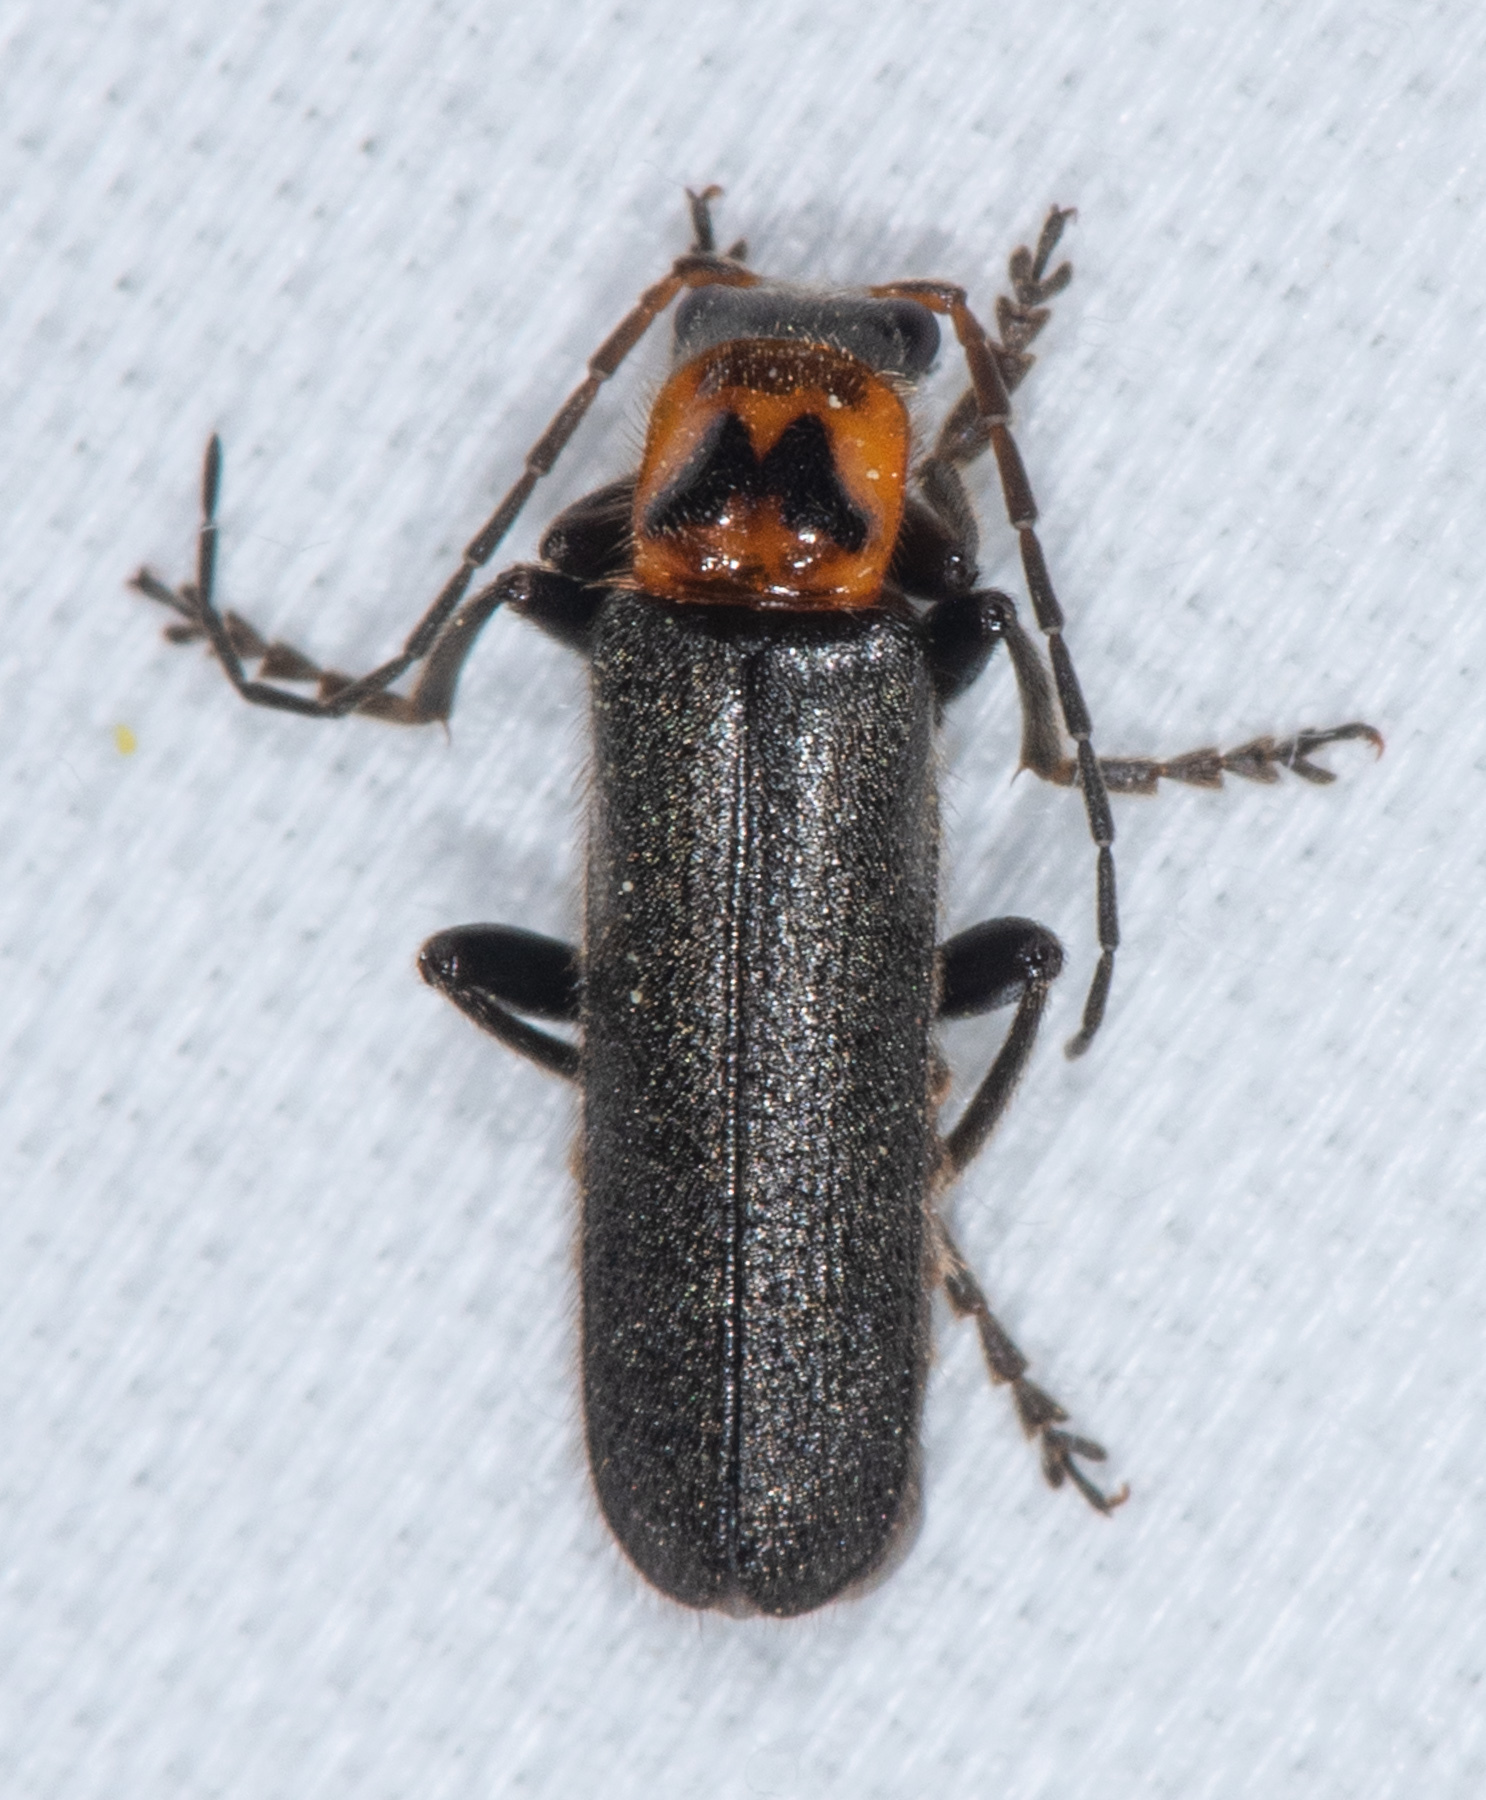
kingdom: Animalia
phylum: Arthropoda
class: Insecta
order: Coleoptera
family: Cantharidae
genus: Cyrtomoptera
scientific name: Cyrtomoptera divisa
